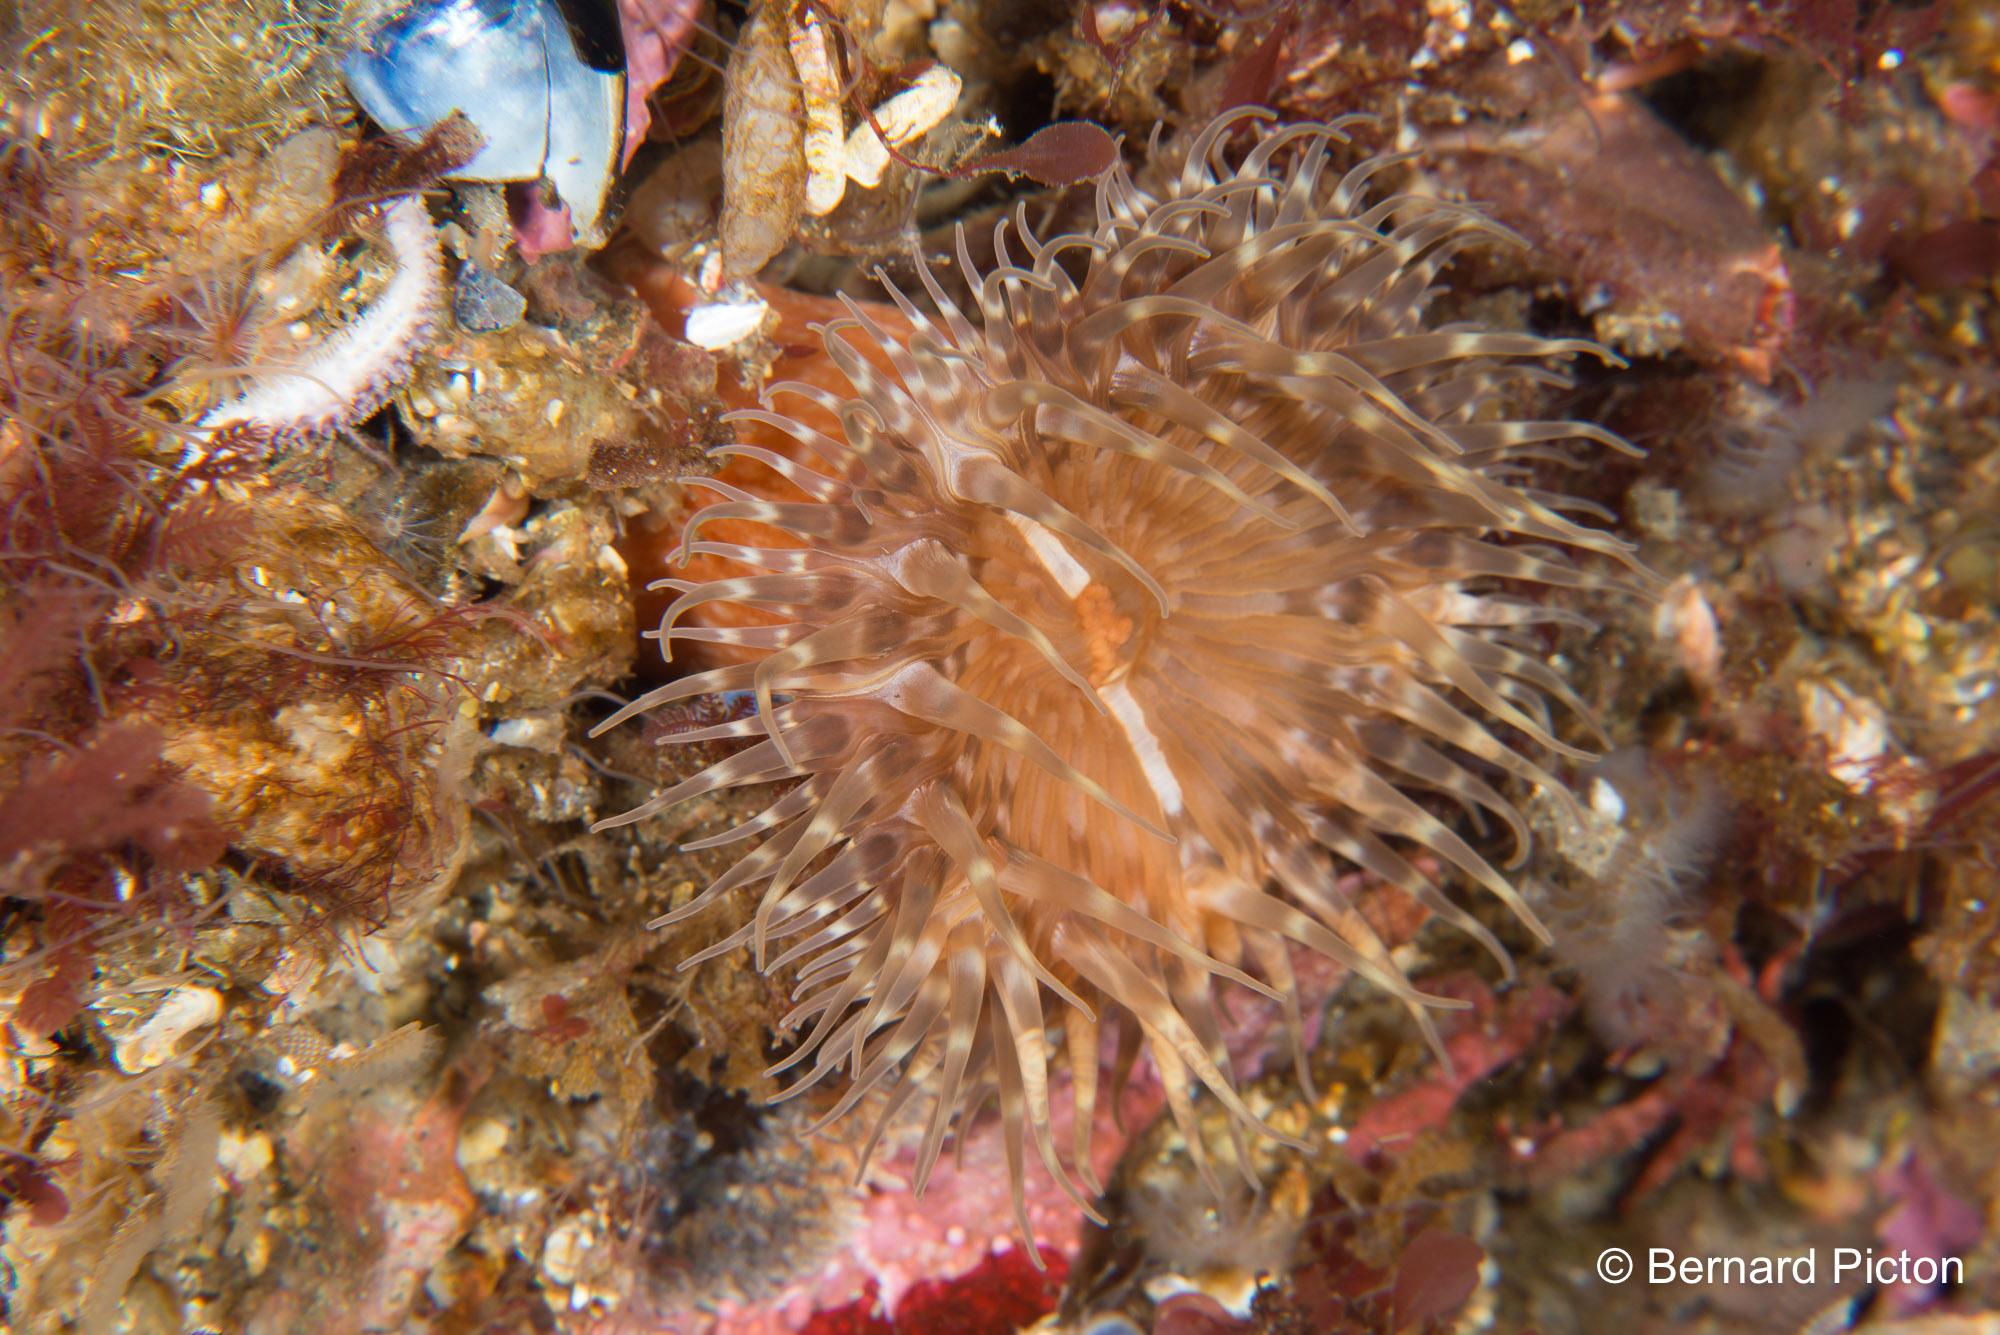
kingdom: Animalia
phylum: Cnidaria
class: Anthozoa
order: Actiniaria
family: Sagartiidae
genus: Cylista
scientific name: Cylista elegans
